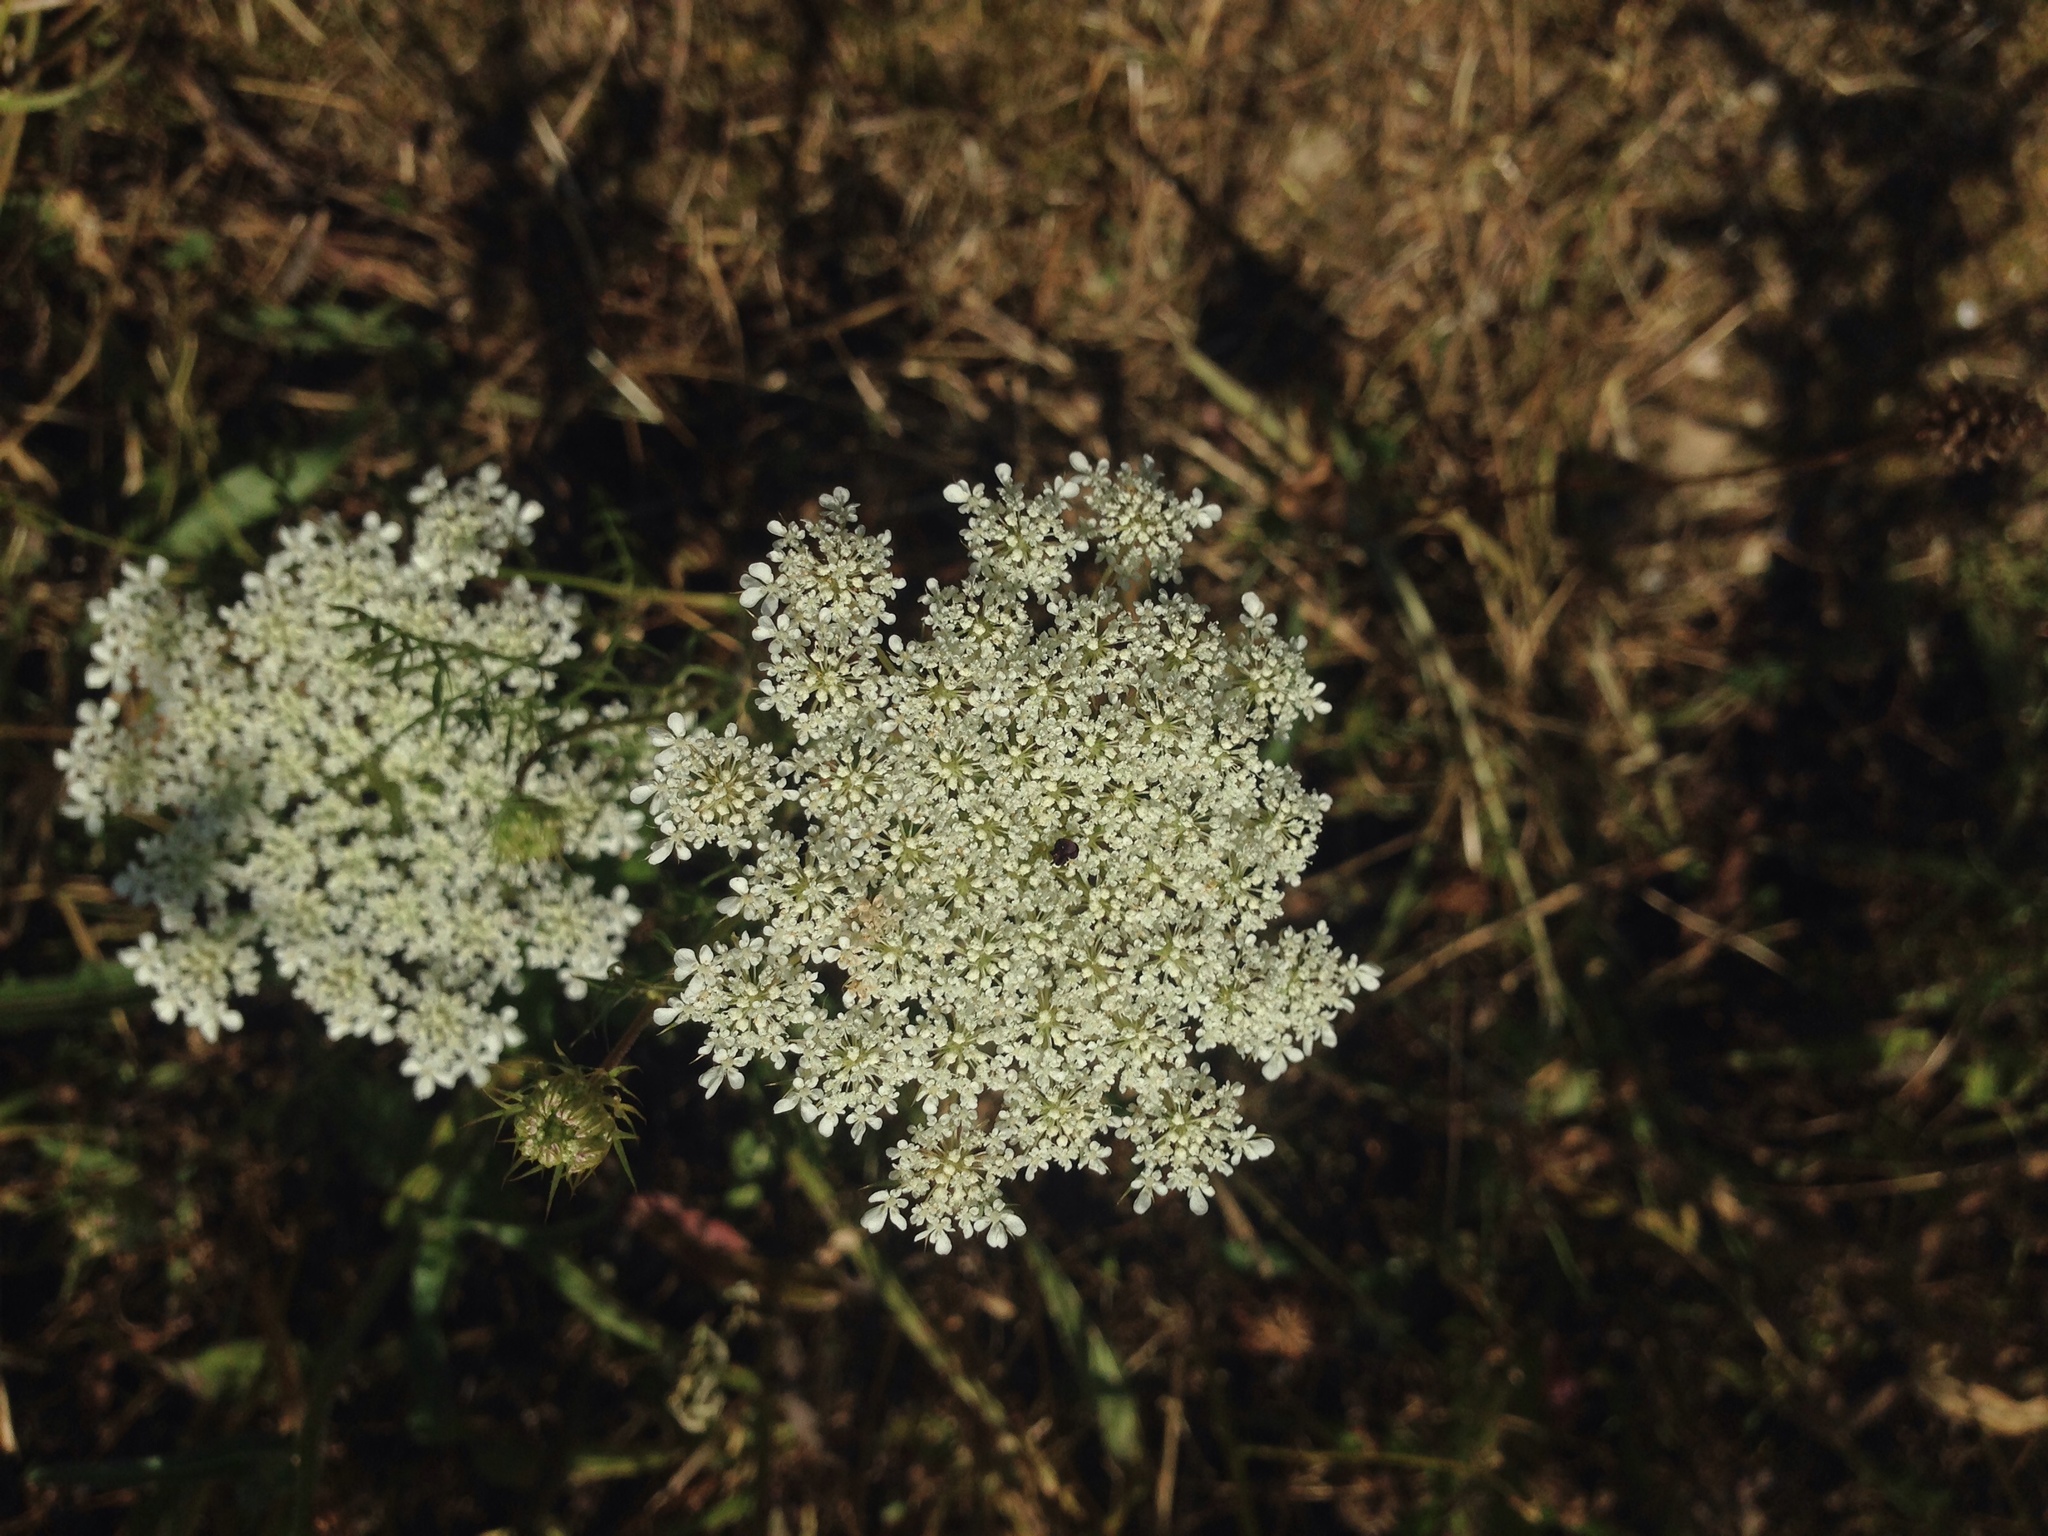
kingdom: Plantae
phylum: Tracheophyta
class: Magnoliopsida
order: Apiales
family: Apiaceae
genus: Daucus
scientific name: Daucus carota
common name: Wild carrot
